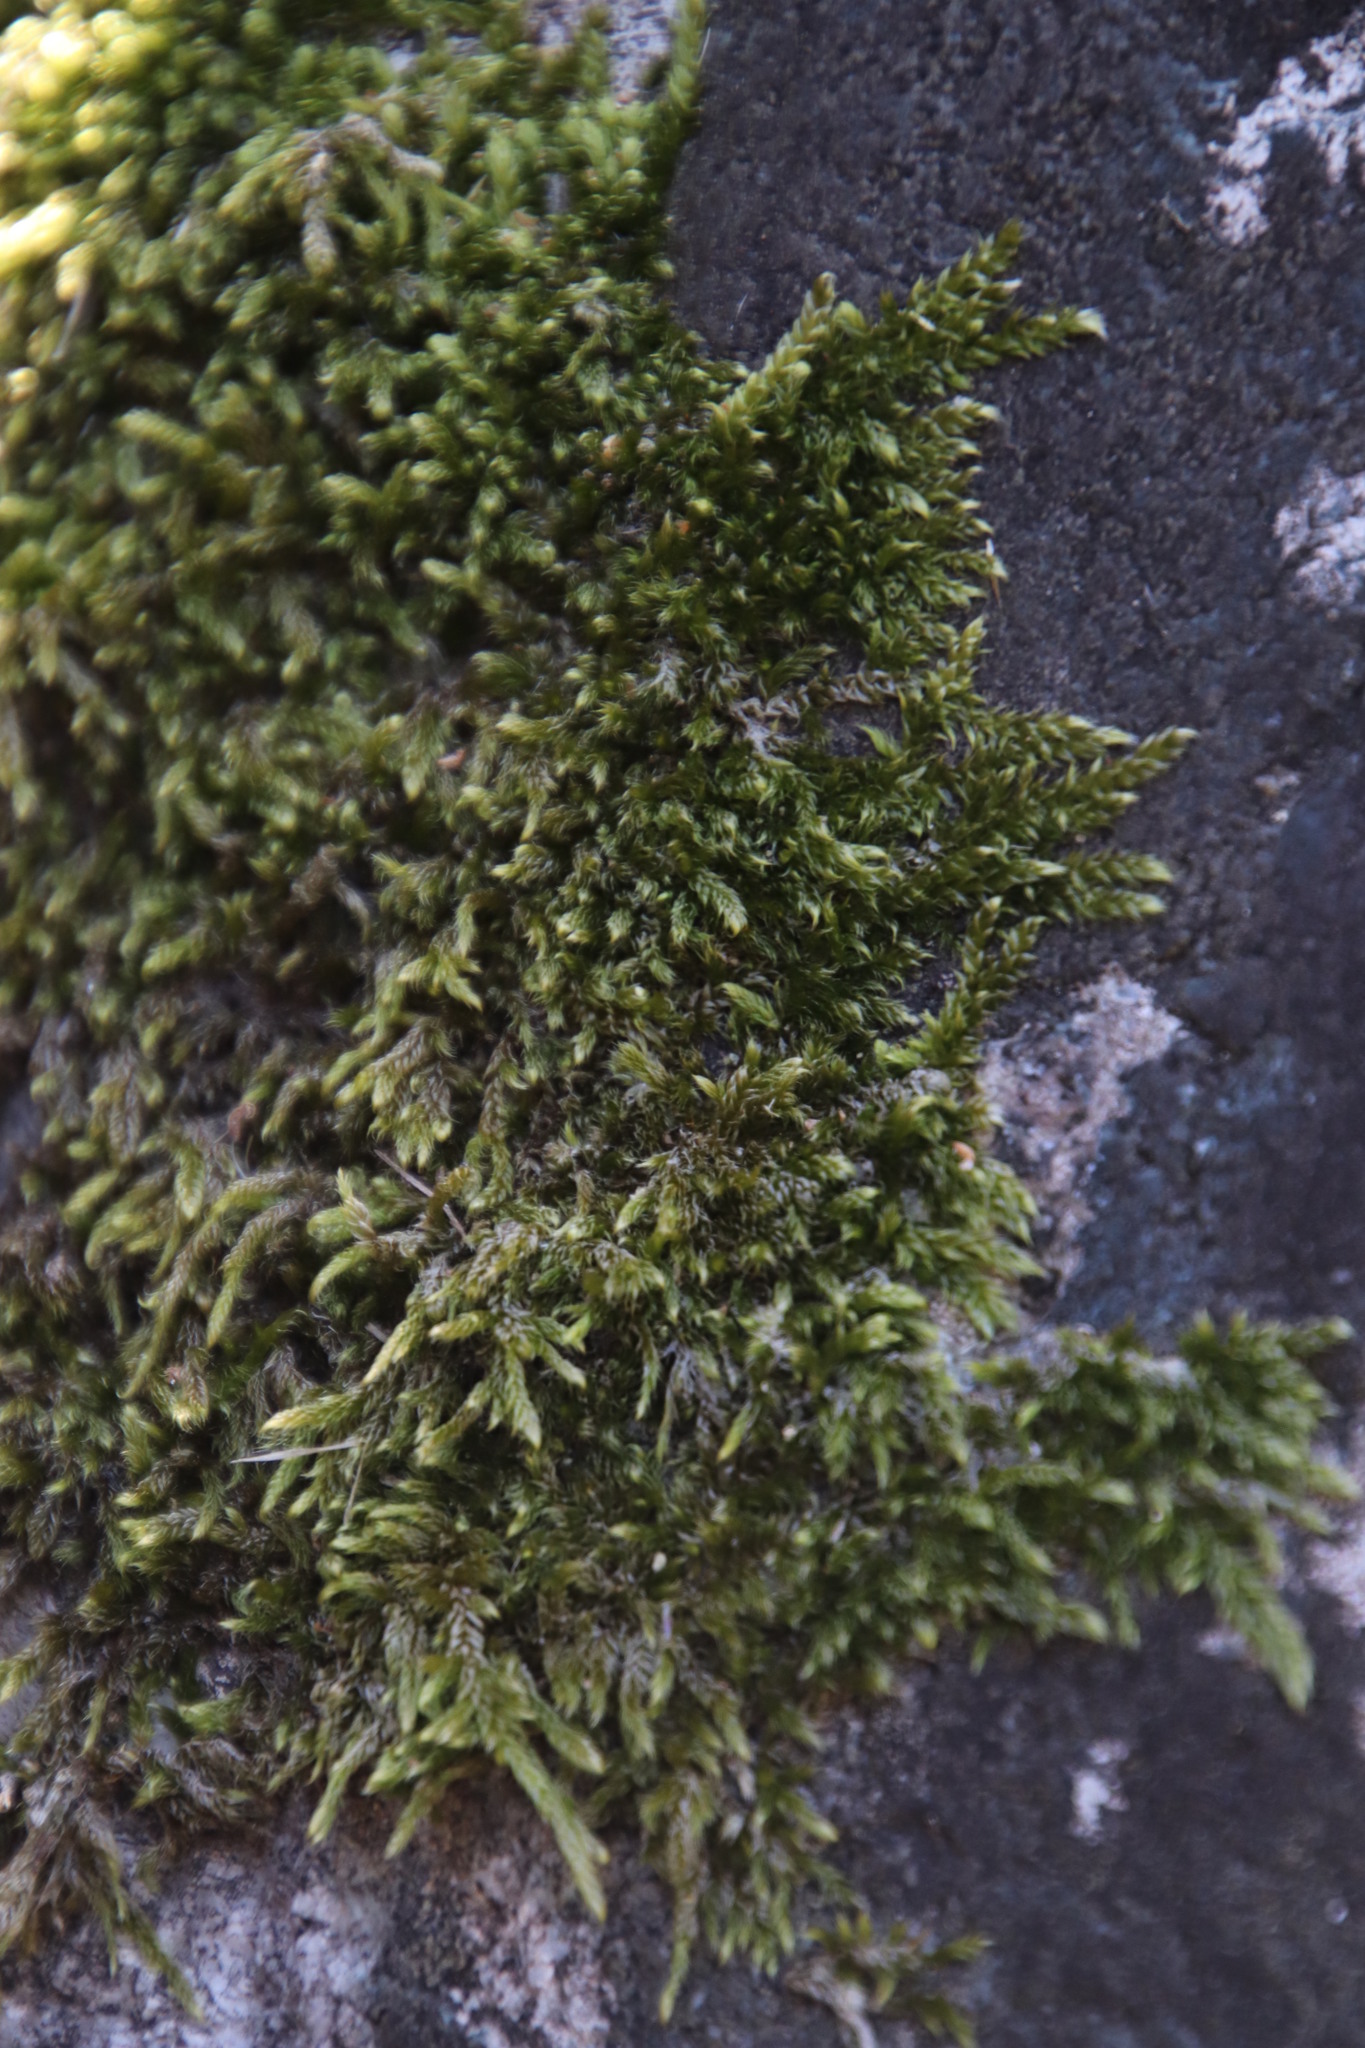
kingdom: Plantae
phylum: Bryophyta
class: Bryopsida
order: Hypnales
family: Hypnaceae
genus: Hypnum
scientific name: Hypnum cupressiforme
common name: Cypress-leaved plait-moss
